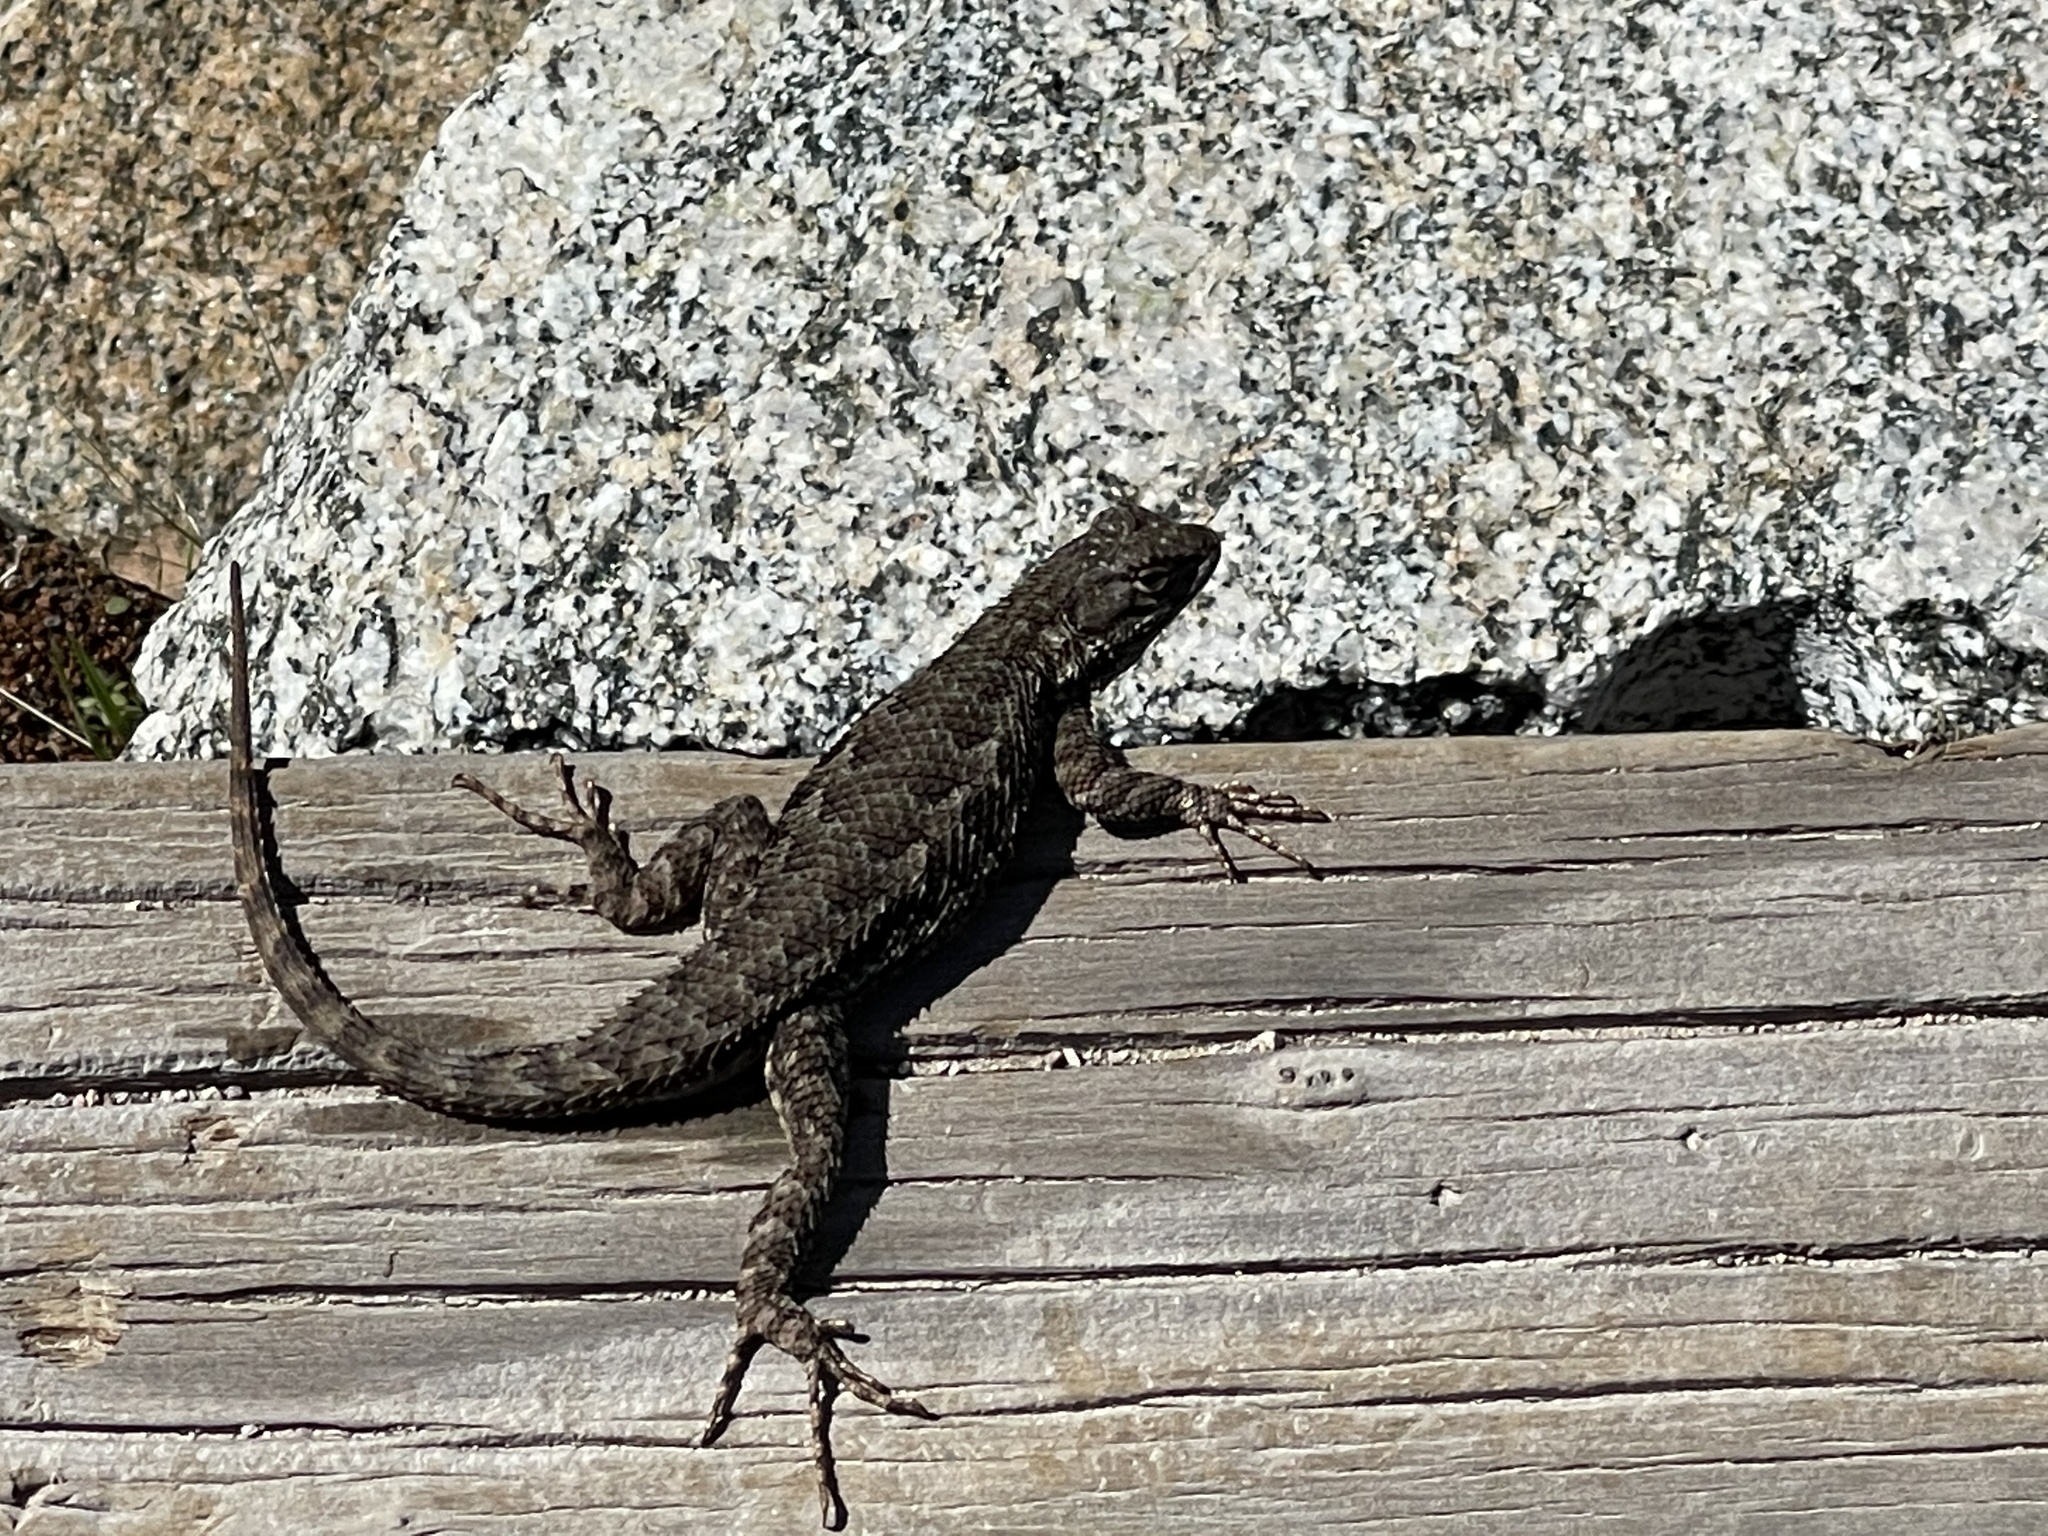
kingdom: Animalia
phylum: Chordata
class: Squamata
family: Phrynosomatidae
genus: Sceloporus
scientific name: Sceloporus occidentalis
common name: Western fence lizard
